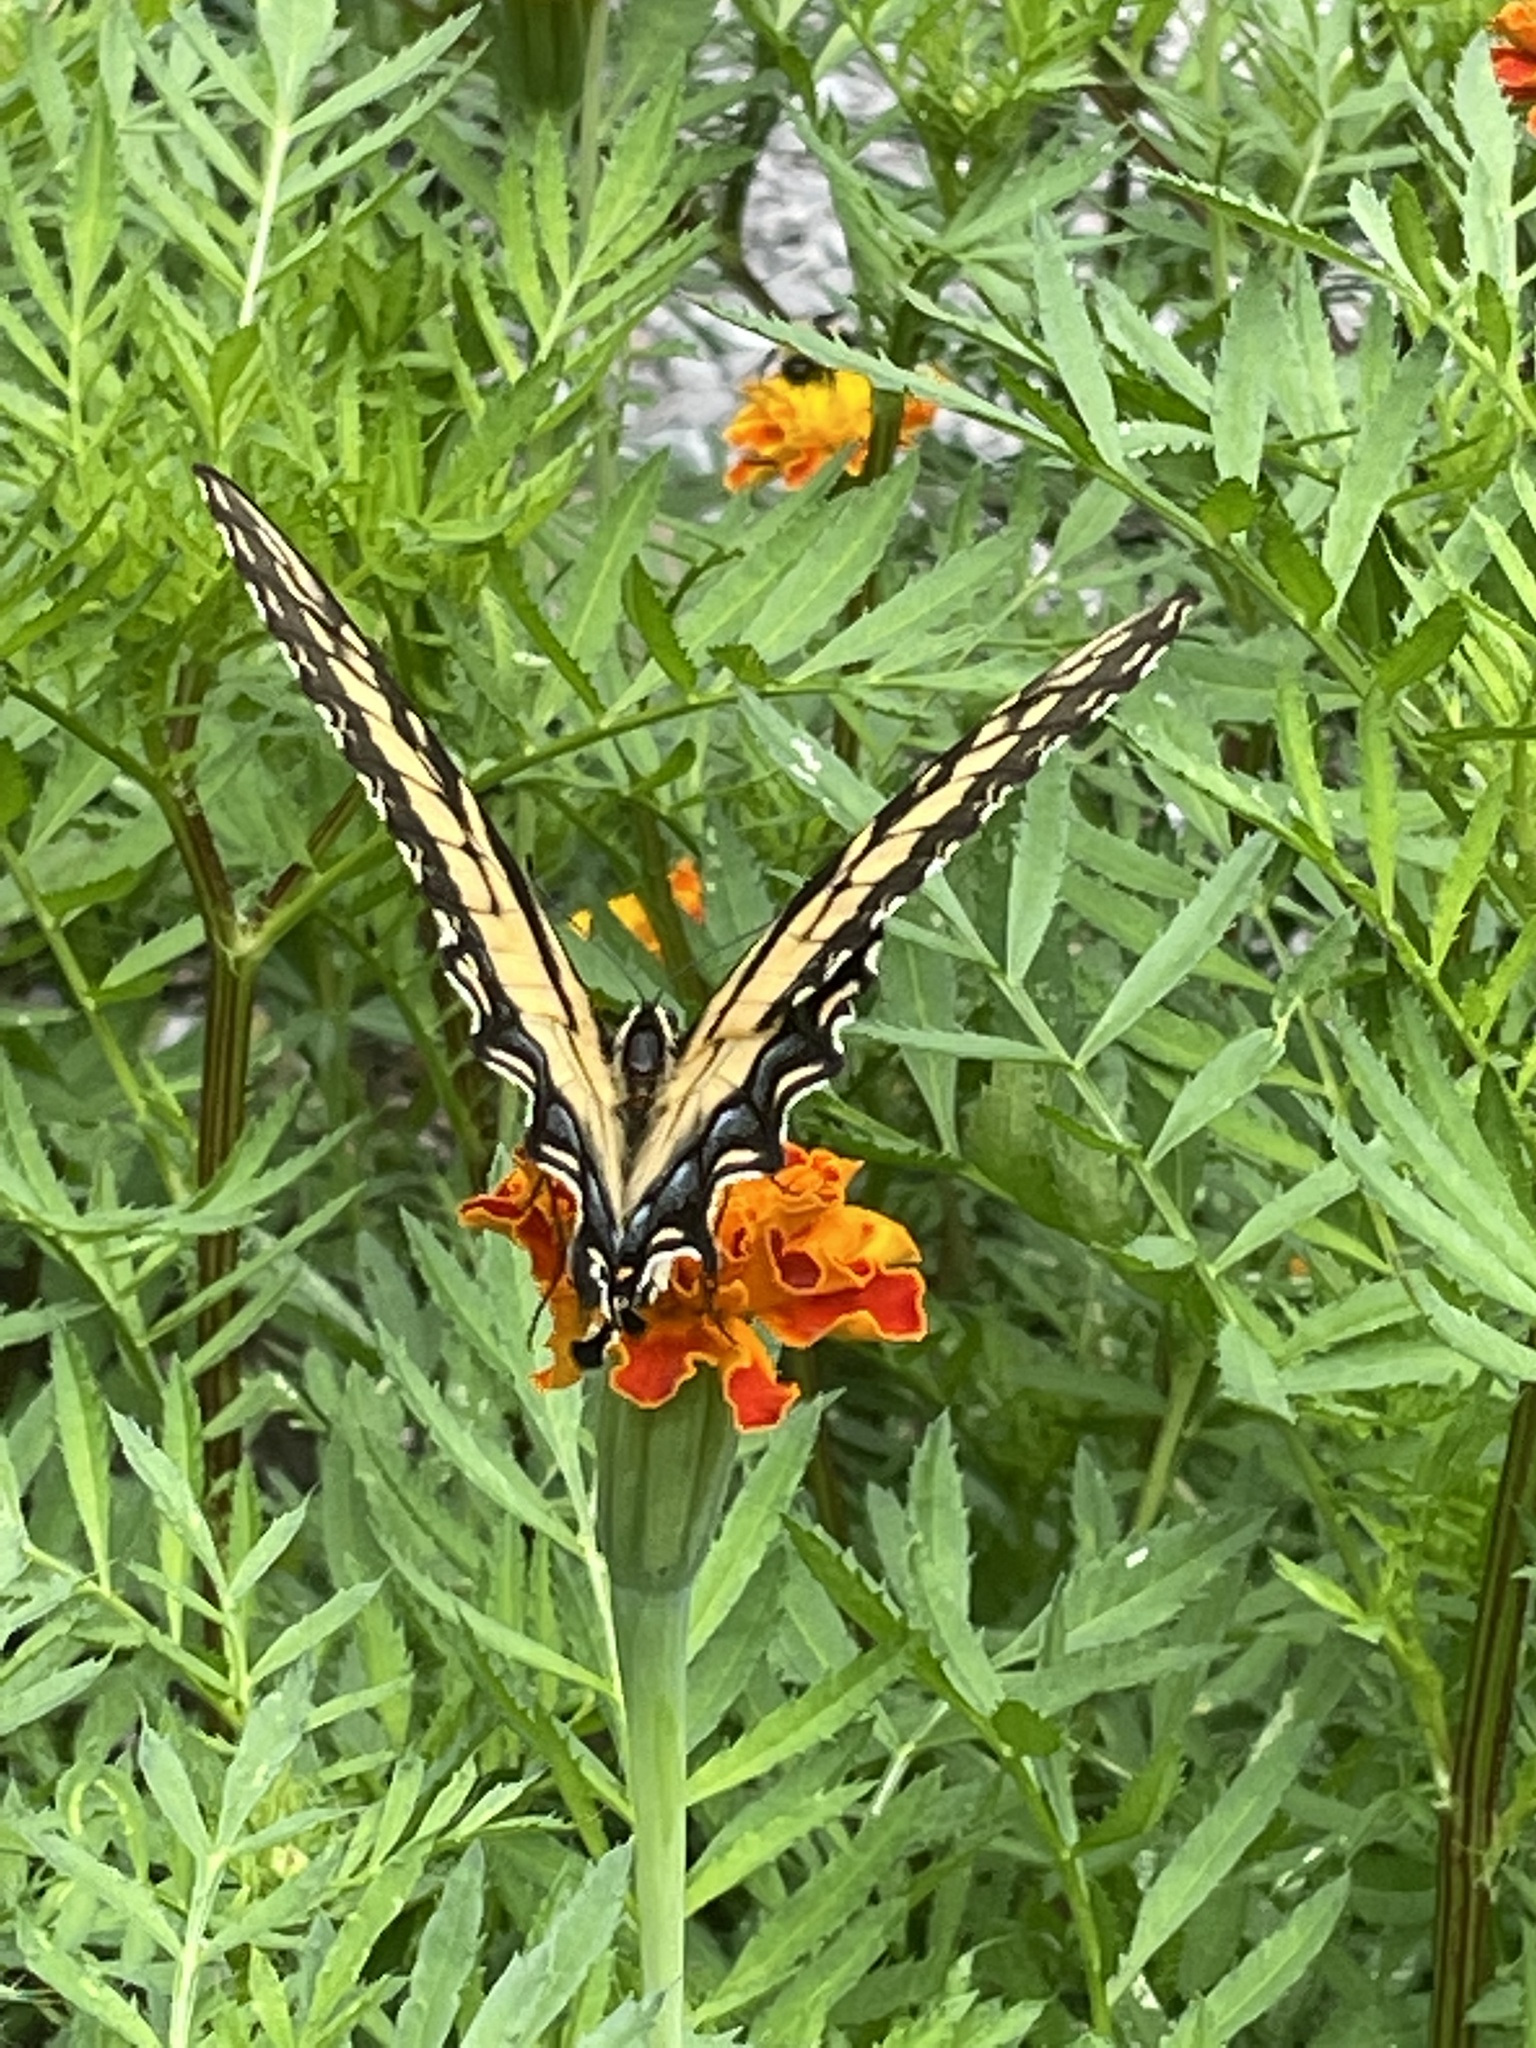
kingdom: Animalia
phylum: Arthropoda
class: Insecta
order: Lepidoptera
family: Papilionidae
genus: Papilio
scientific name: Papilio glaucus
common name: Tiger swallowtail
